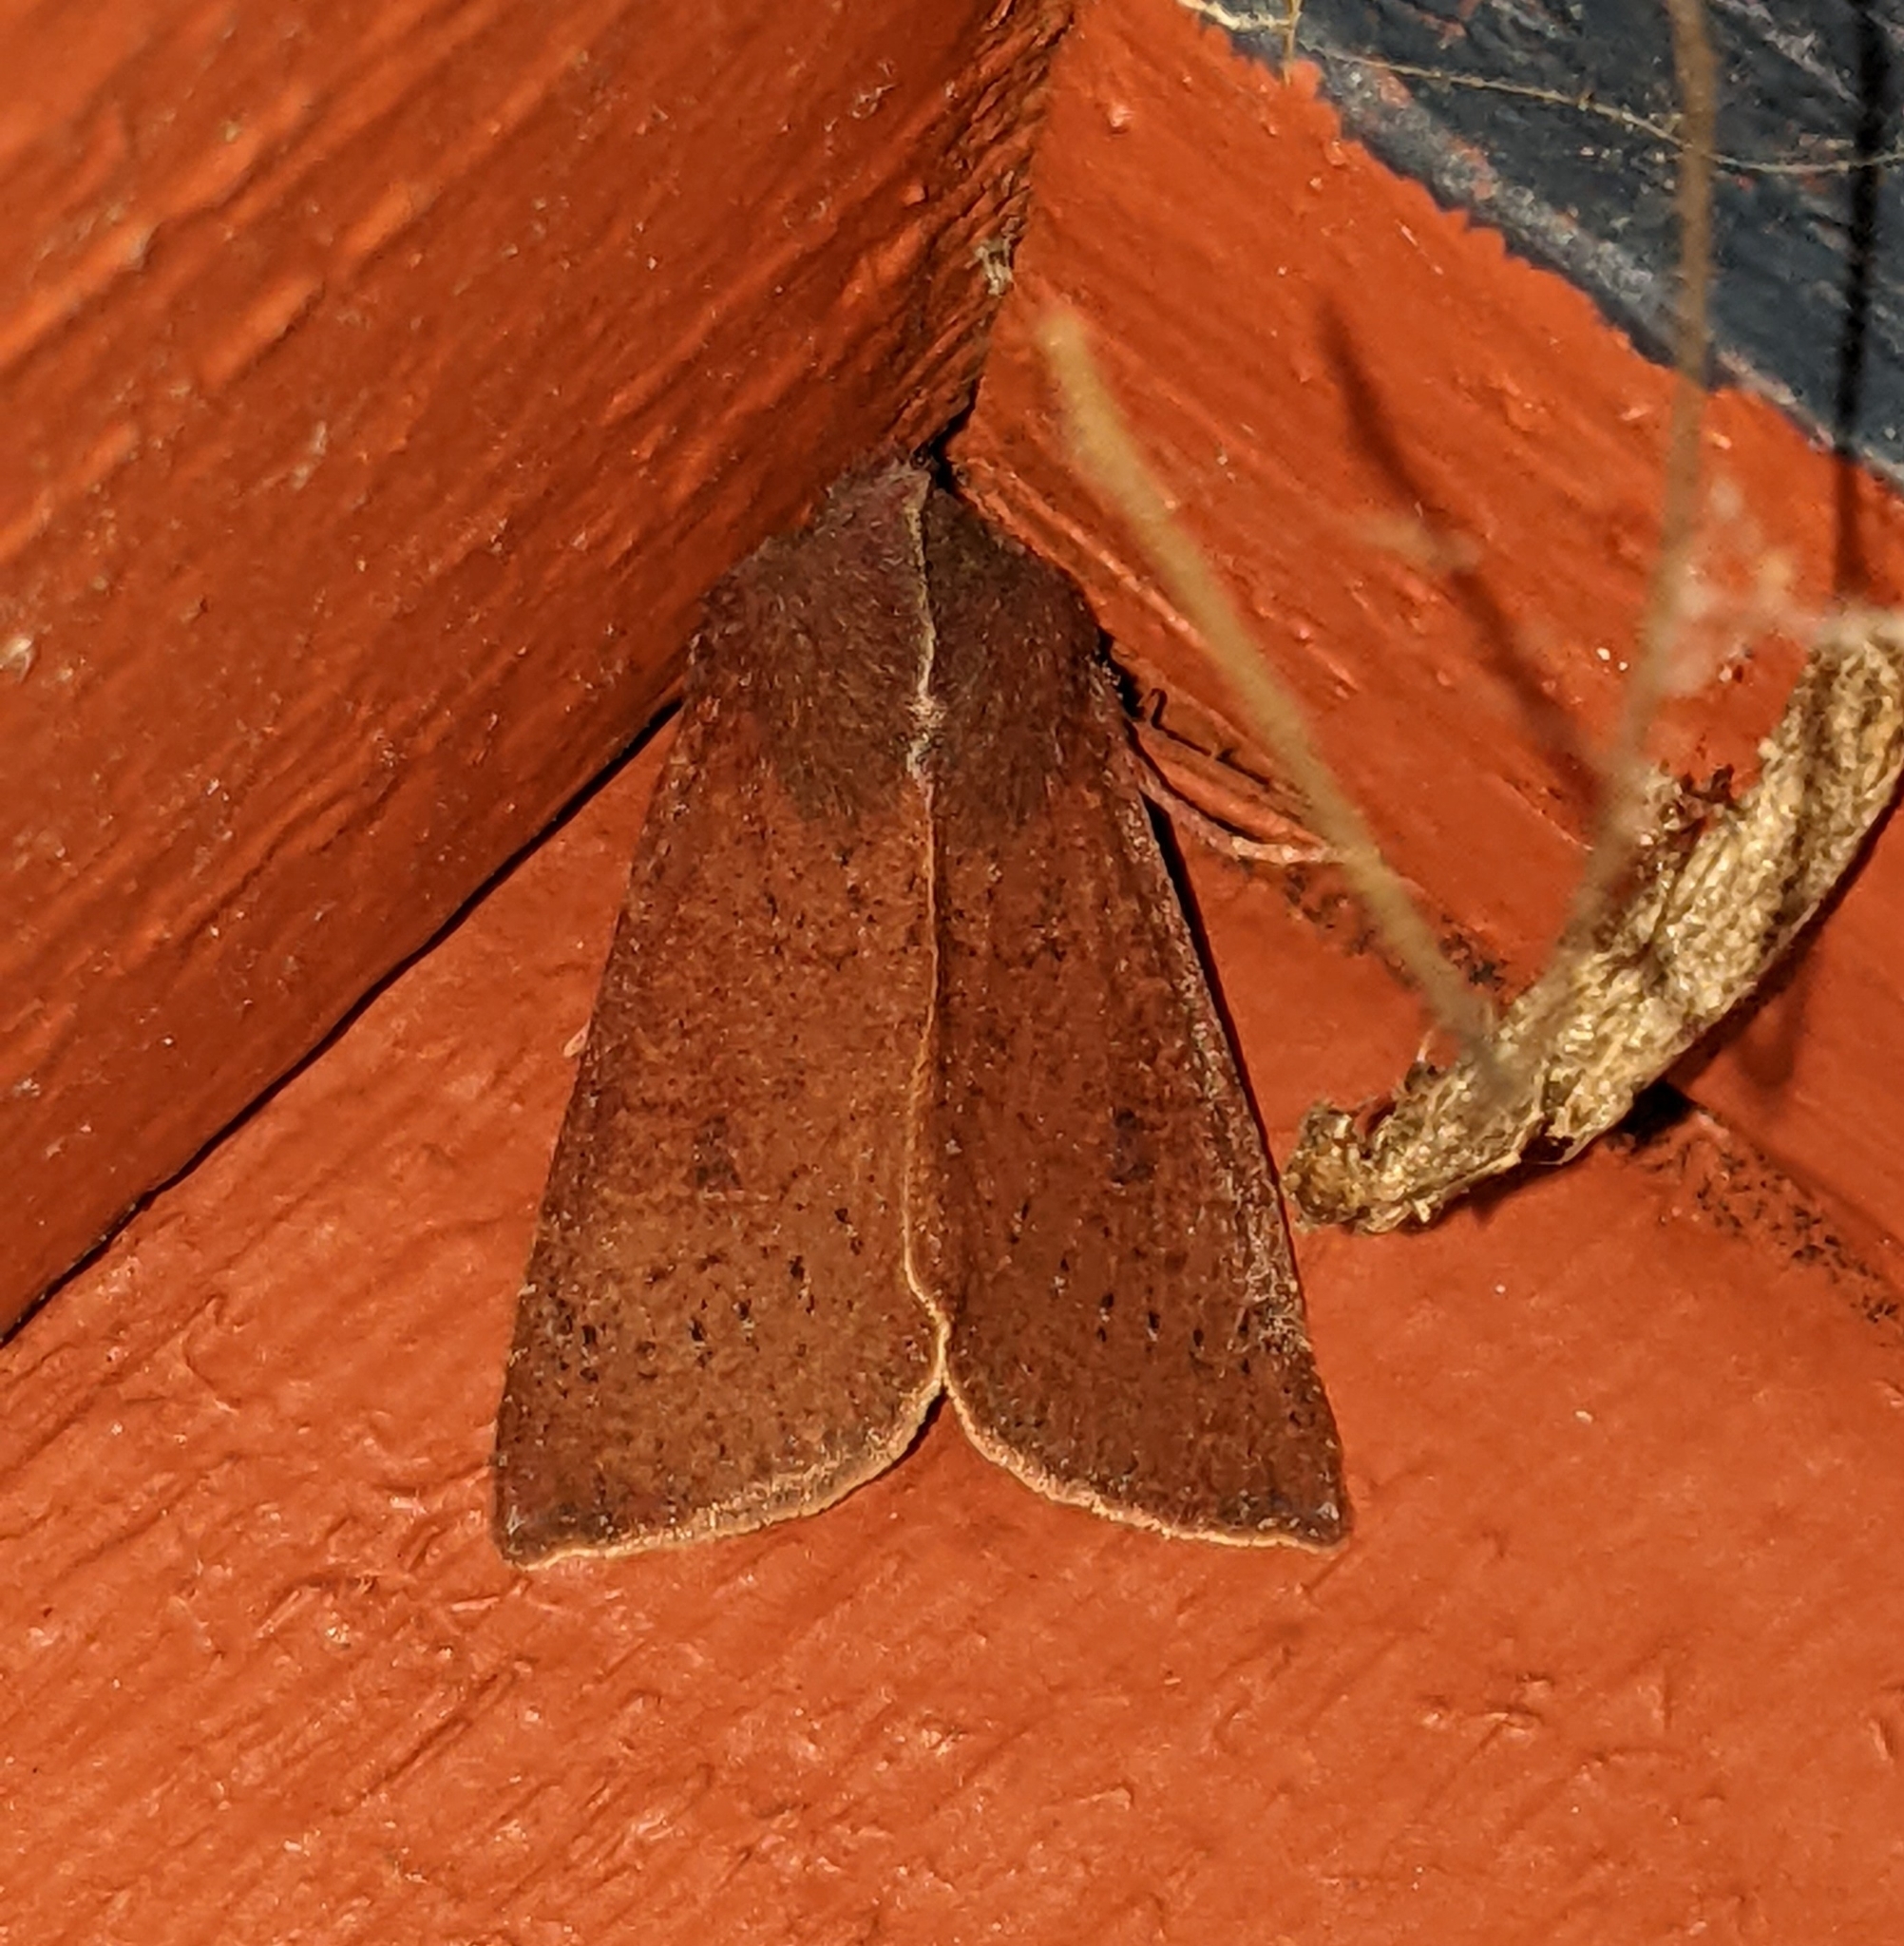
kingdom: Animalia
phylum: Arthropoda
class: Insecta
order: Lepidoptera
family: Noctuidae
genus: Orthosia
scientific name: Orthosia transparens
